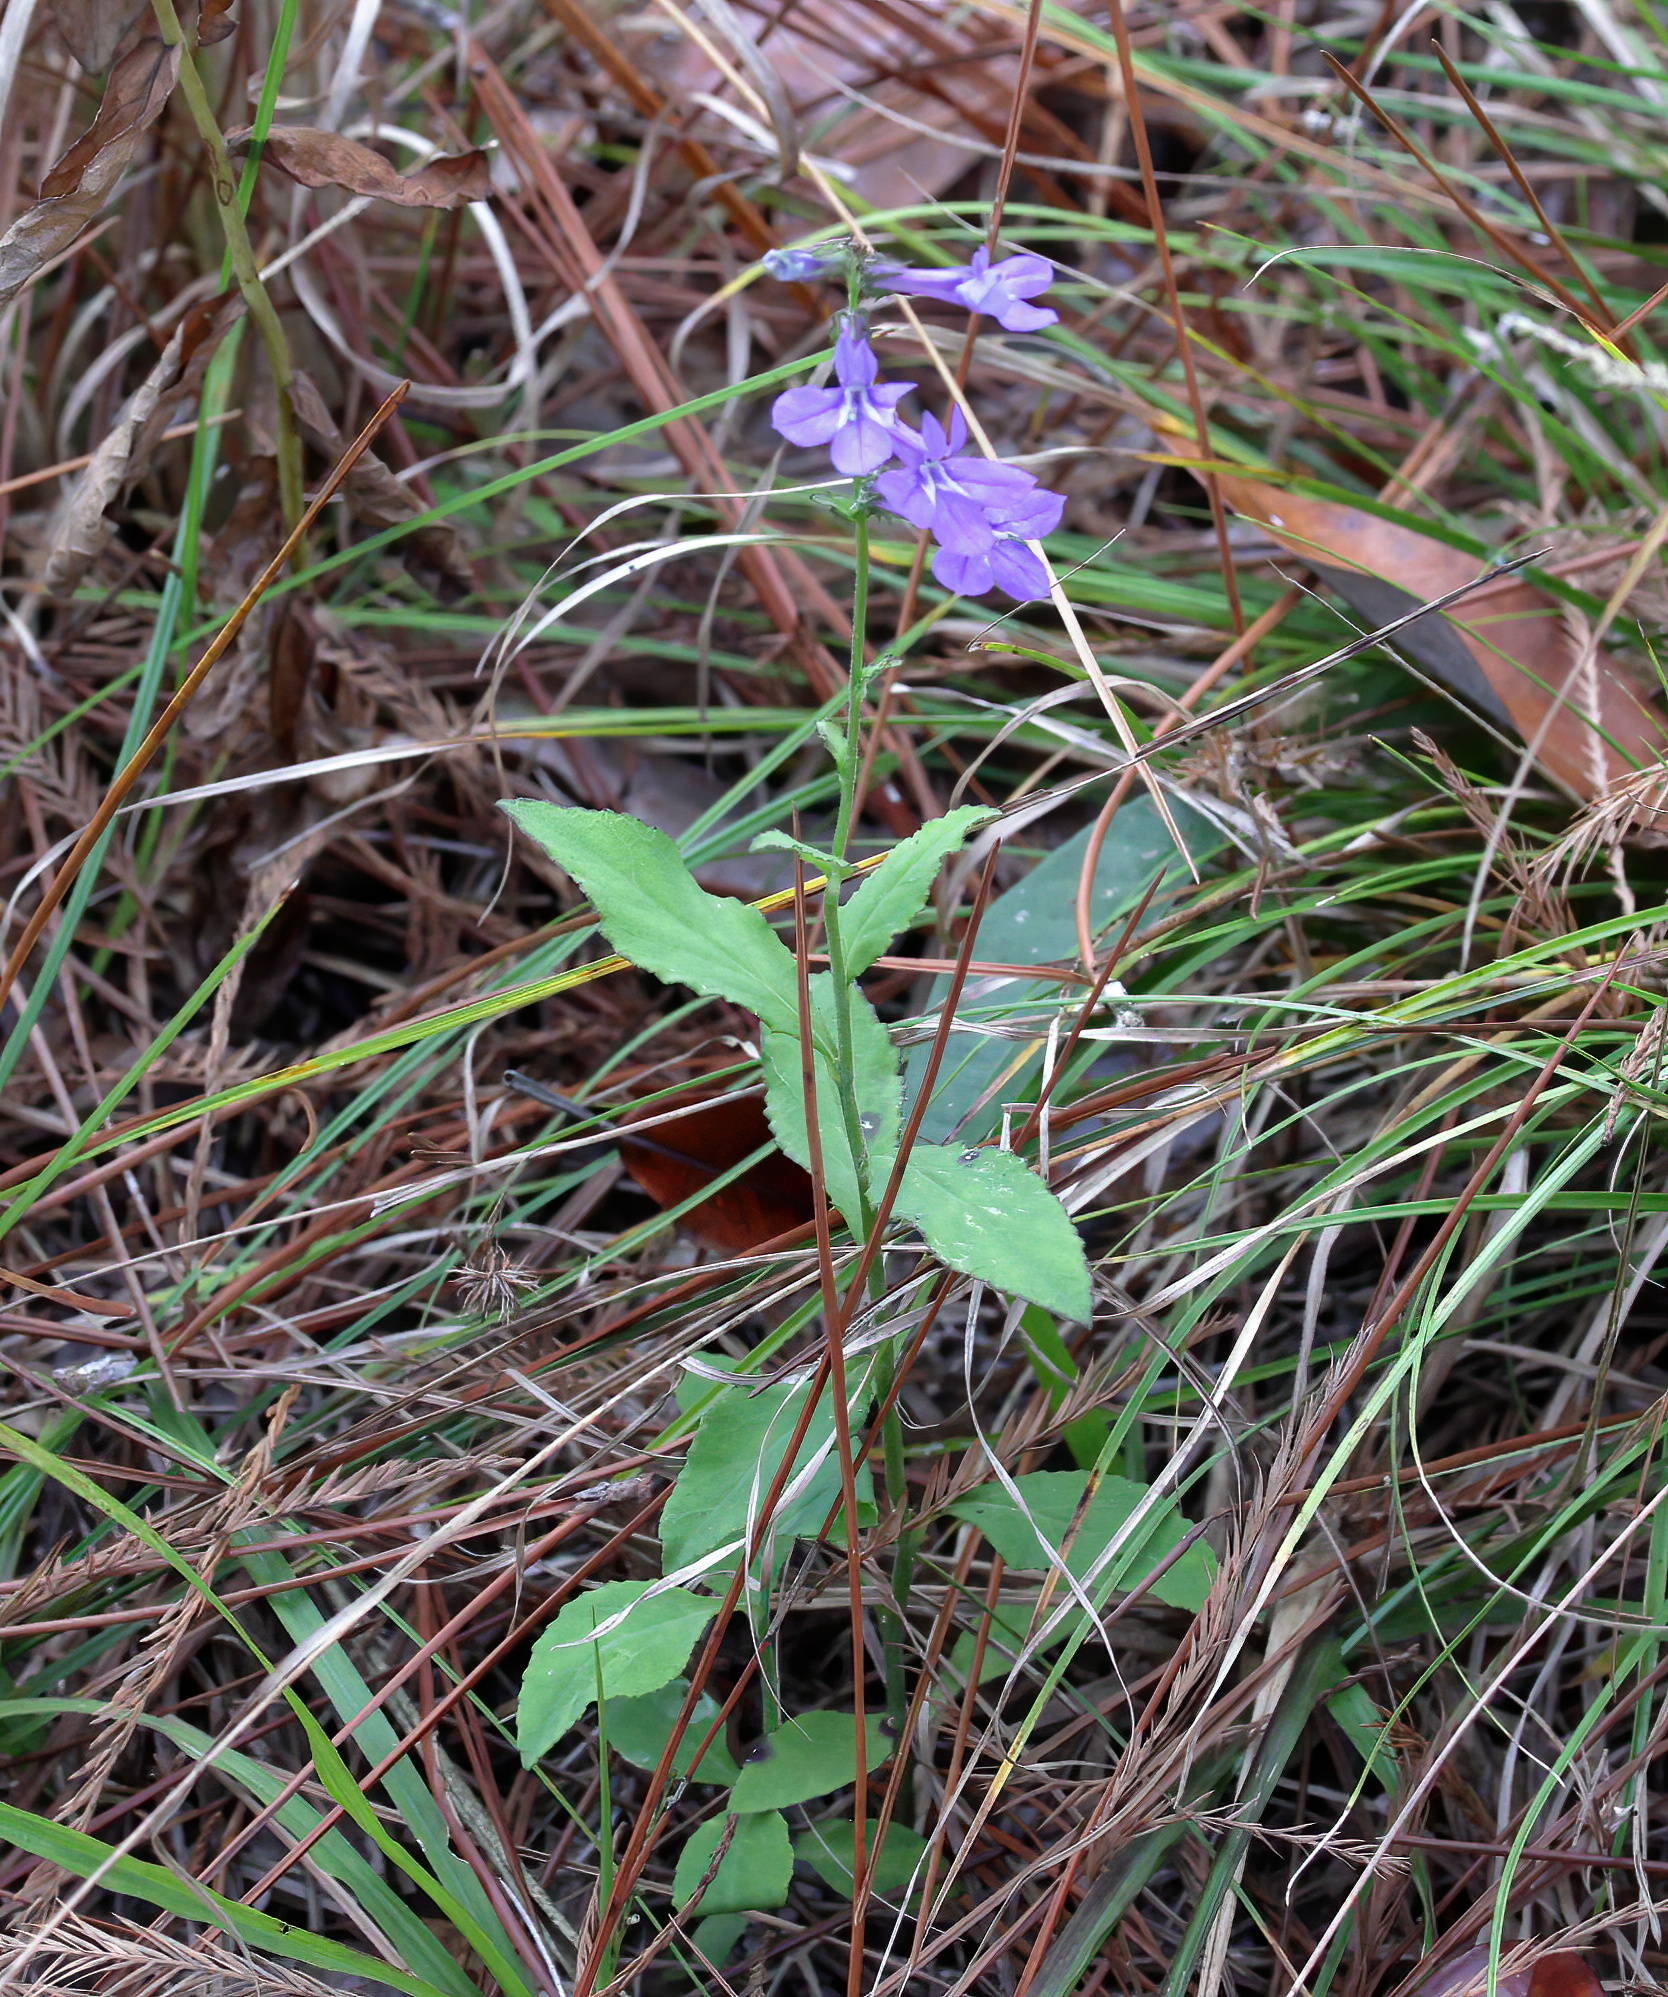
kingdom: Plantae
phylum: Tracheophyta
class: Magnoliopsida
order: Asterales
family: Campanulaceae
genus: Lobelia
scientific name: Lobelia puberula
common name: Purple dewdrop
